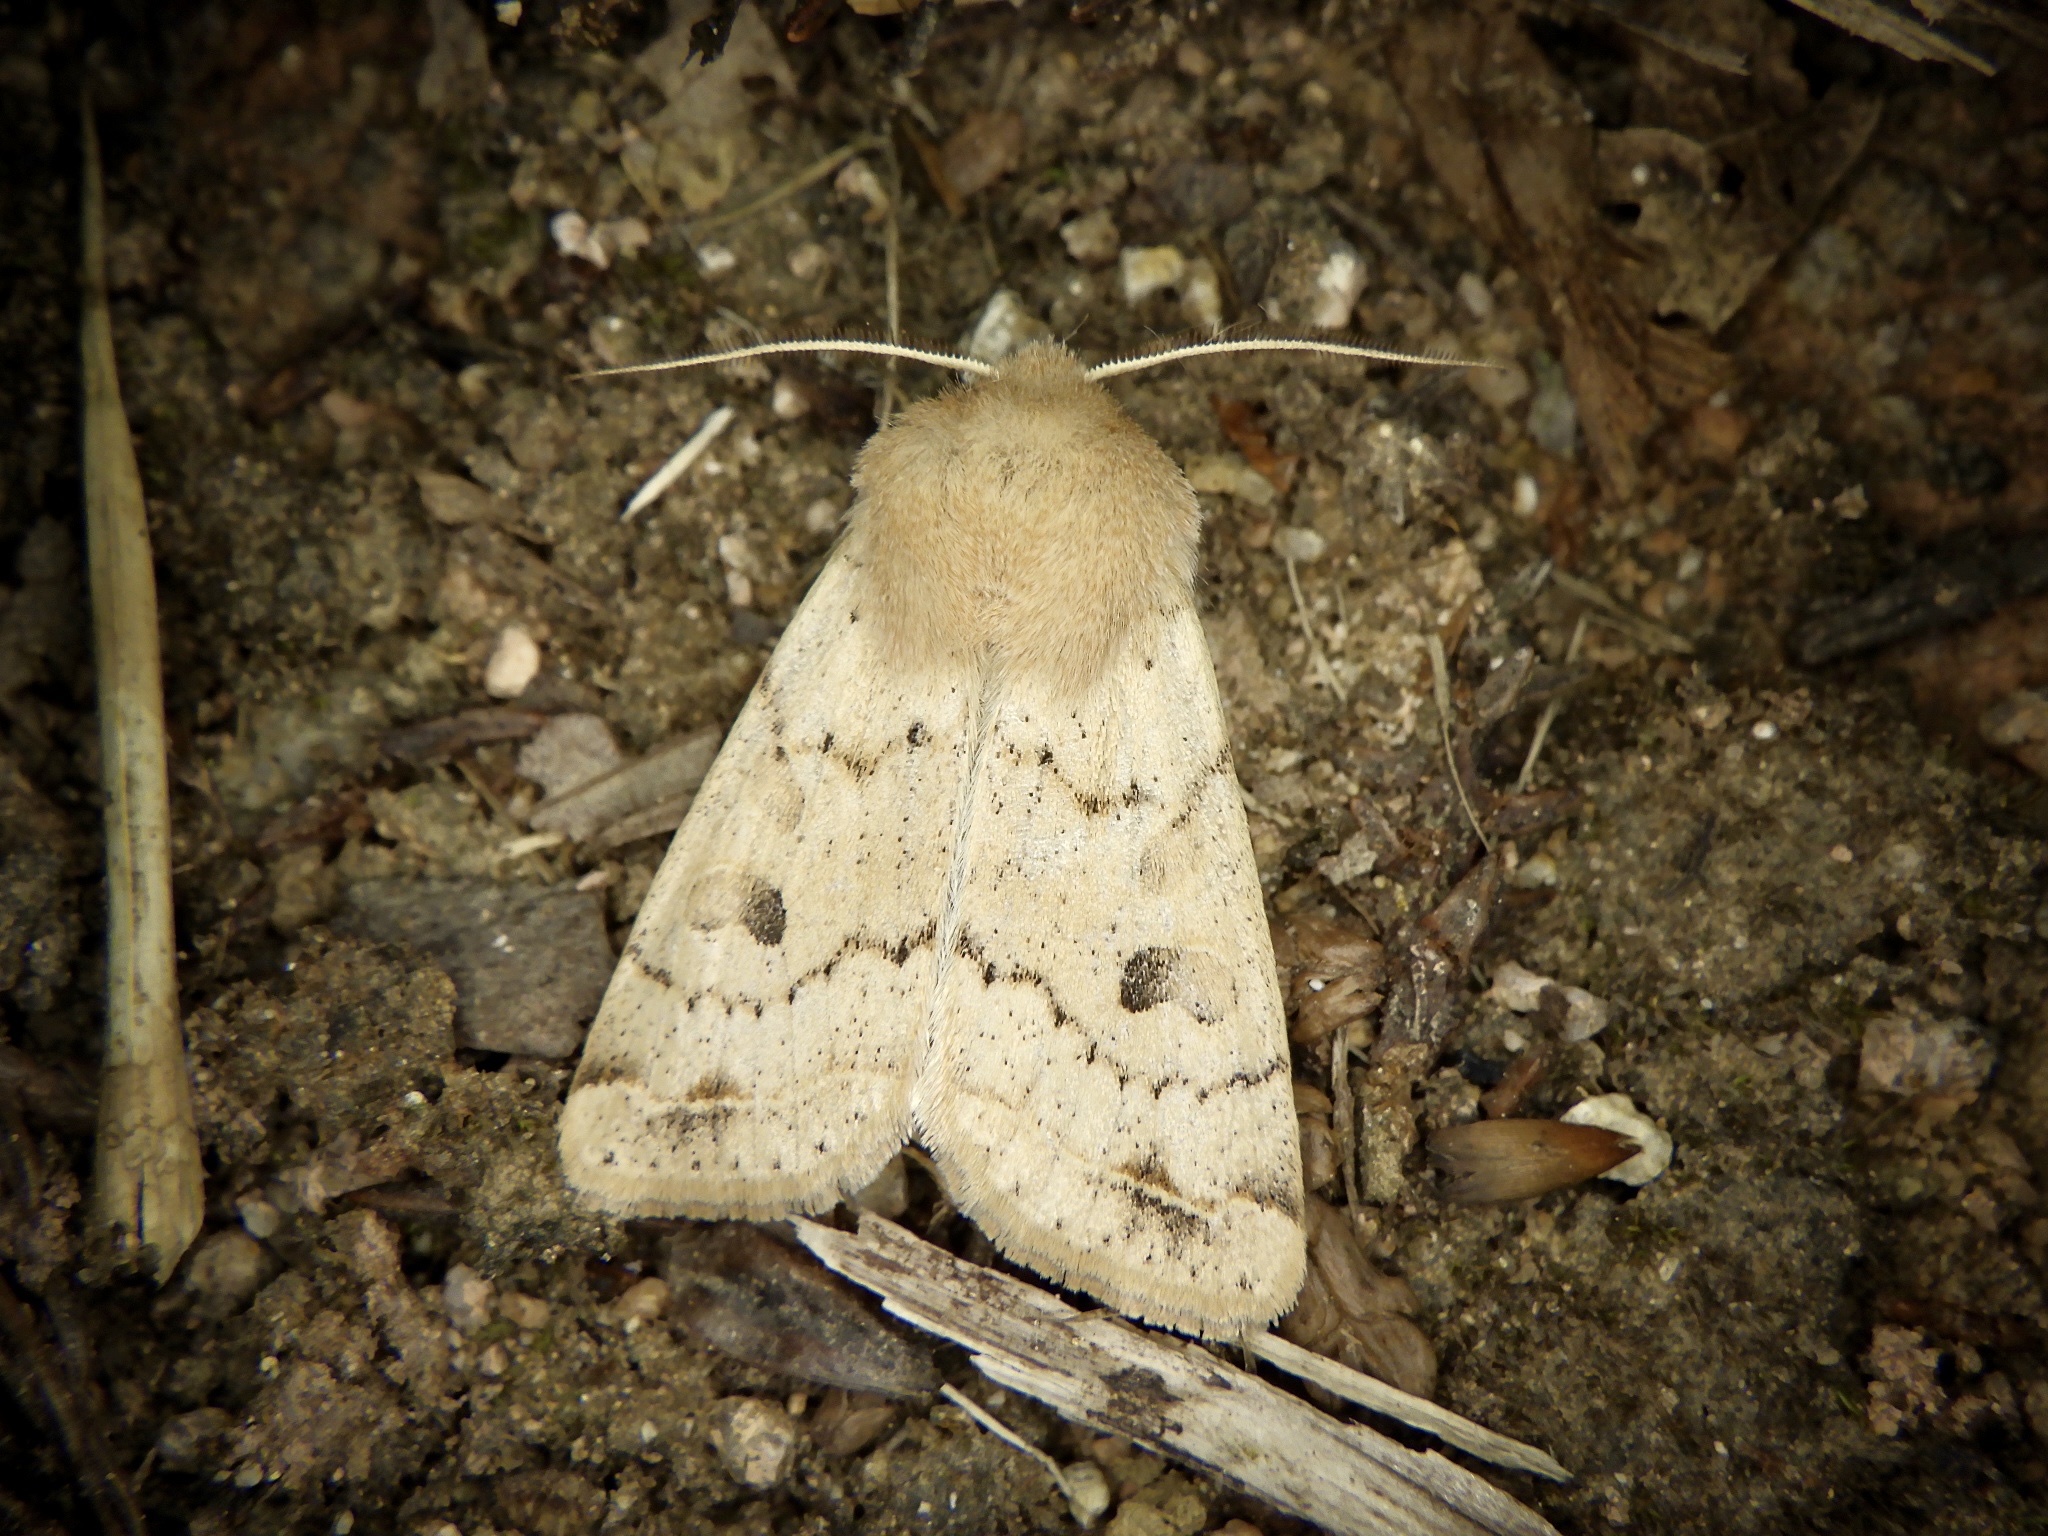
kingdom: Animalia
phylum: Arthropoda
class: Insecta
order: Lepidoptera
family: Noctuidae
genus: Orthosia
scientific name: Orthosia lizetta
